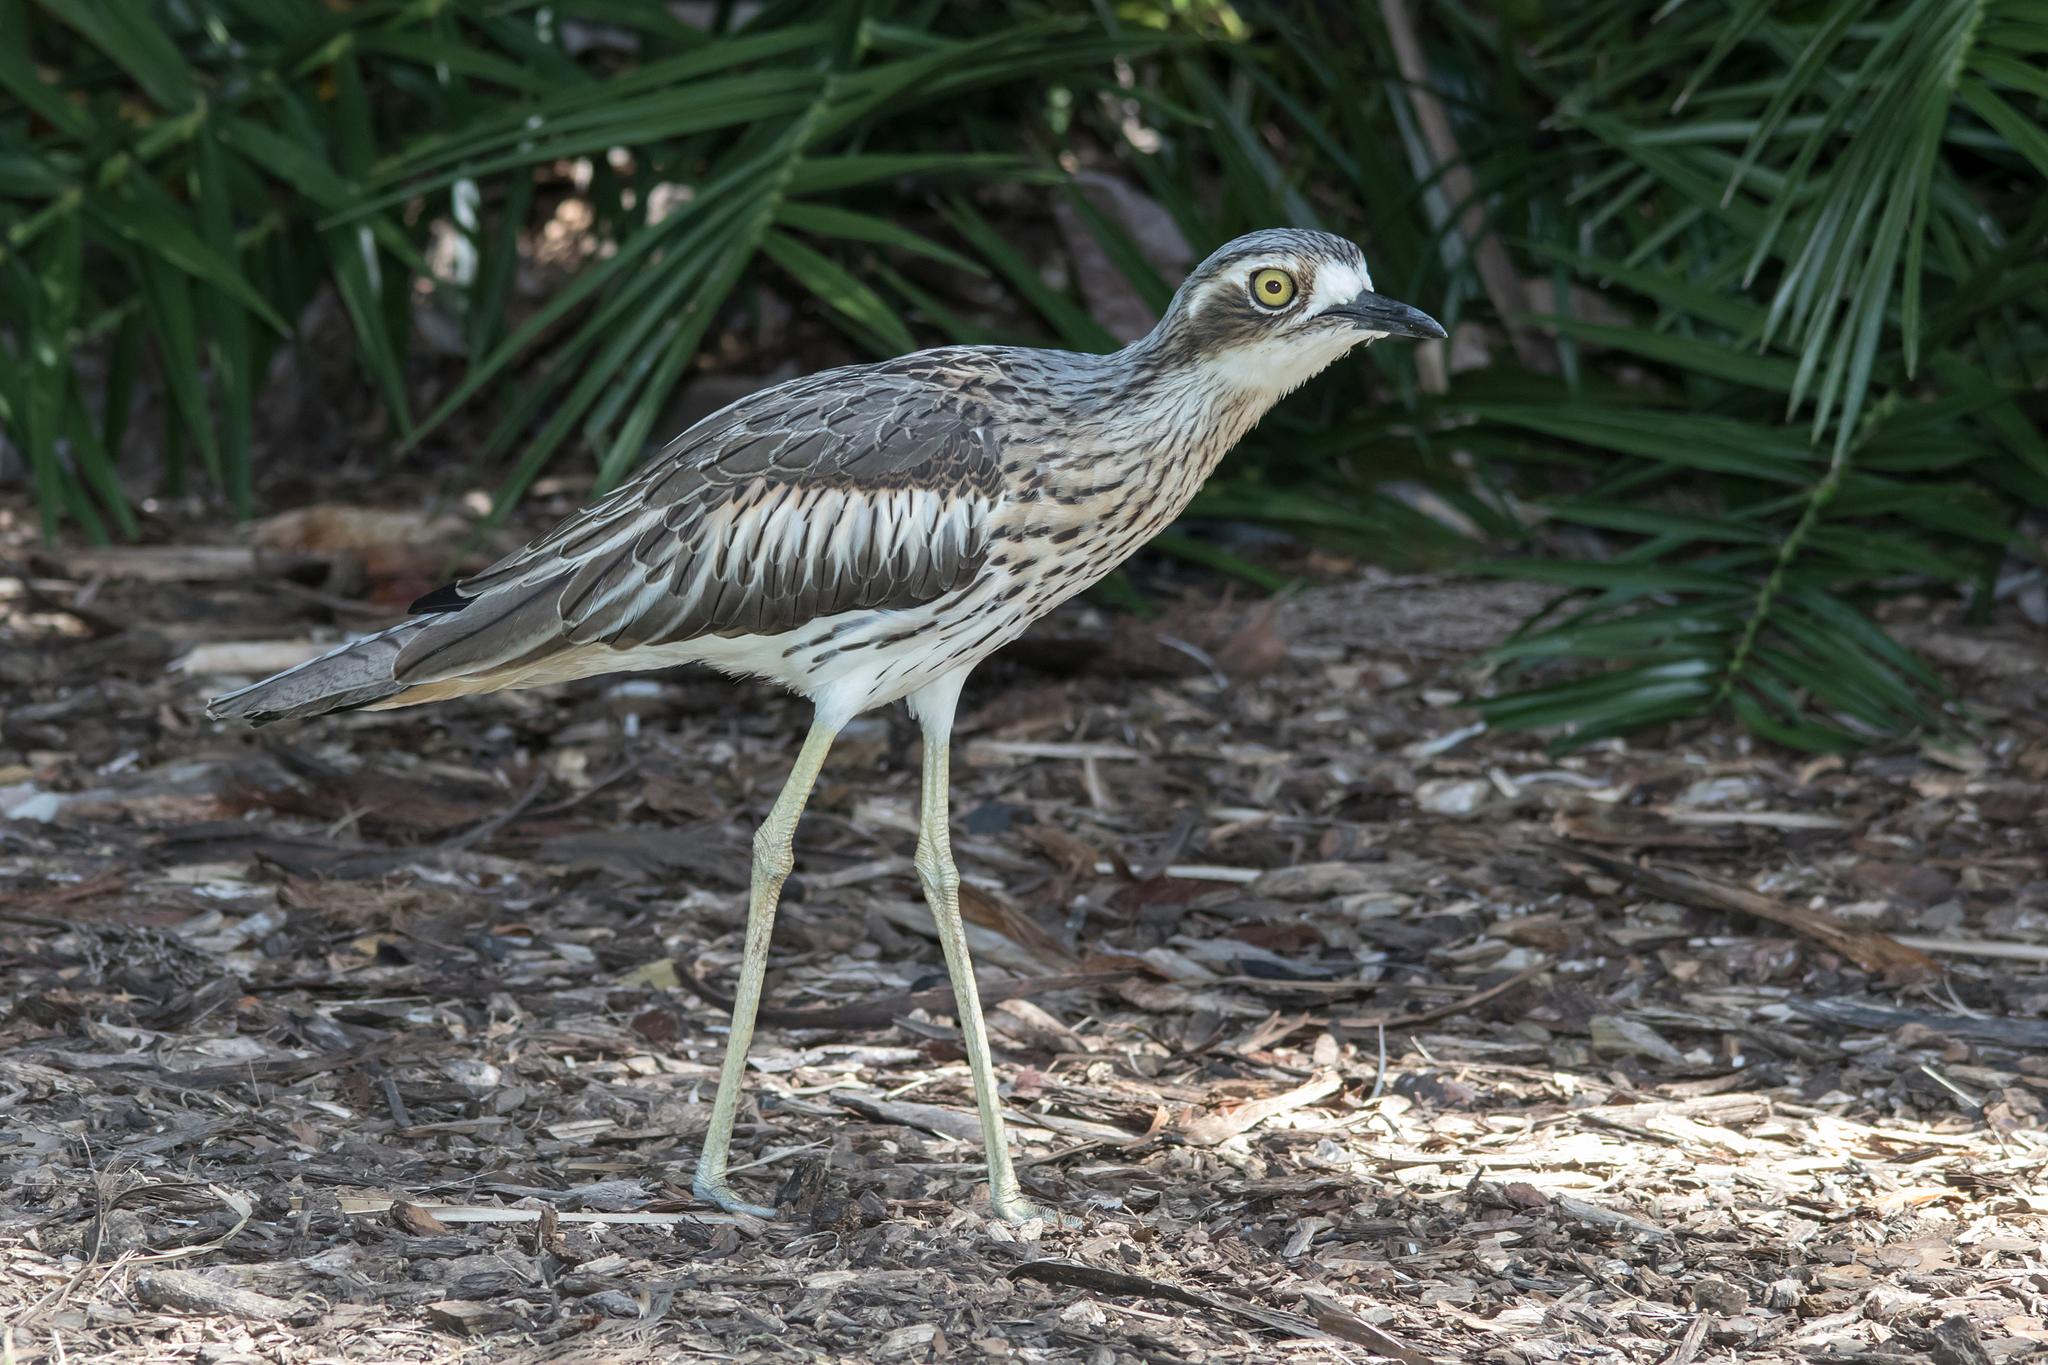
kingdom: Animalia
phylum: Chordata
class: Aves
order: Charadriiformes
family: Burhinidae
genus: Burhinus
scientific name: Burhinus grallarius
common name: Bush stone-curlew
